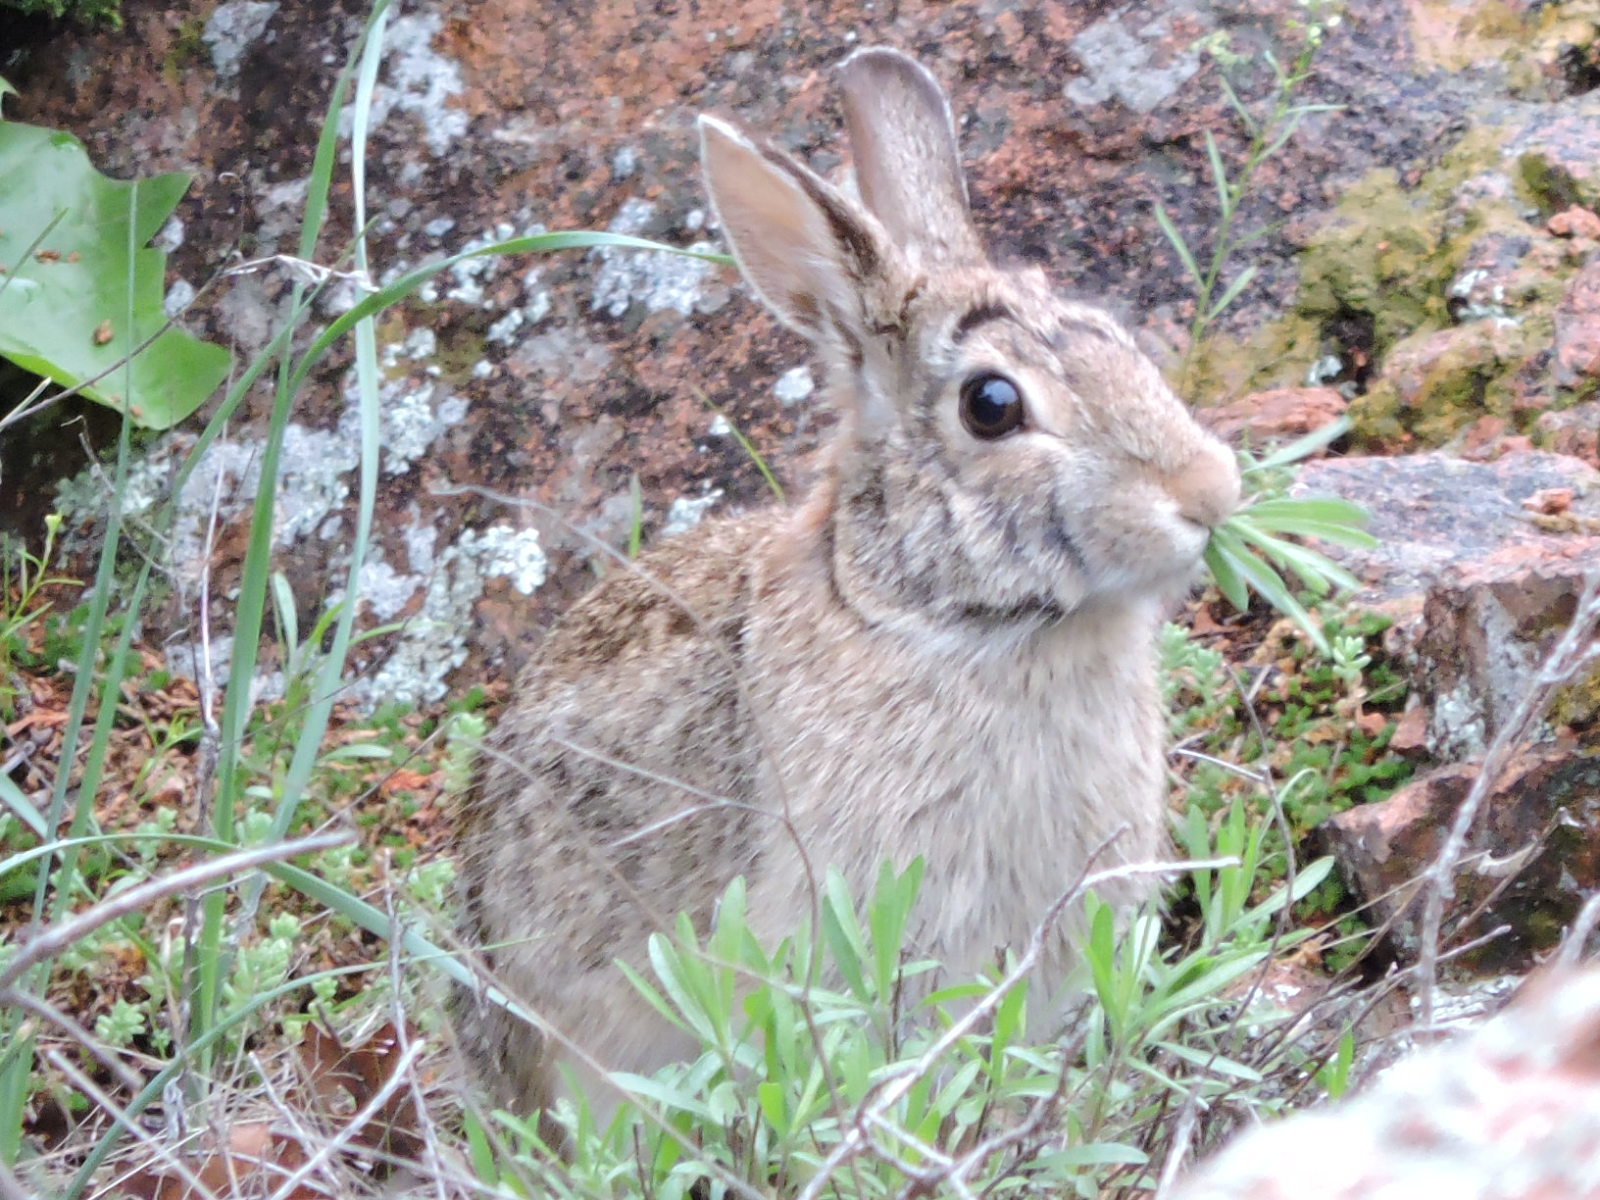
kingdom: Animalia
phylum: Chordata
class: Mammalia
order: Lagomorpha
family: Leporidae
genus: Sylvilagus
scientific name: Sylvilagus floridanus
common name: Eastern cottontail
